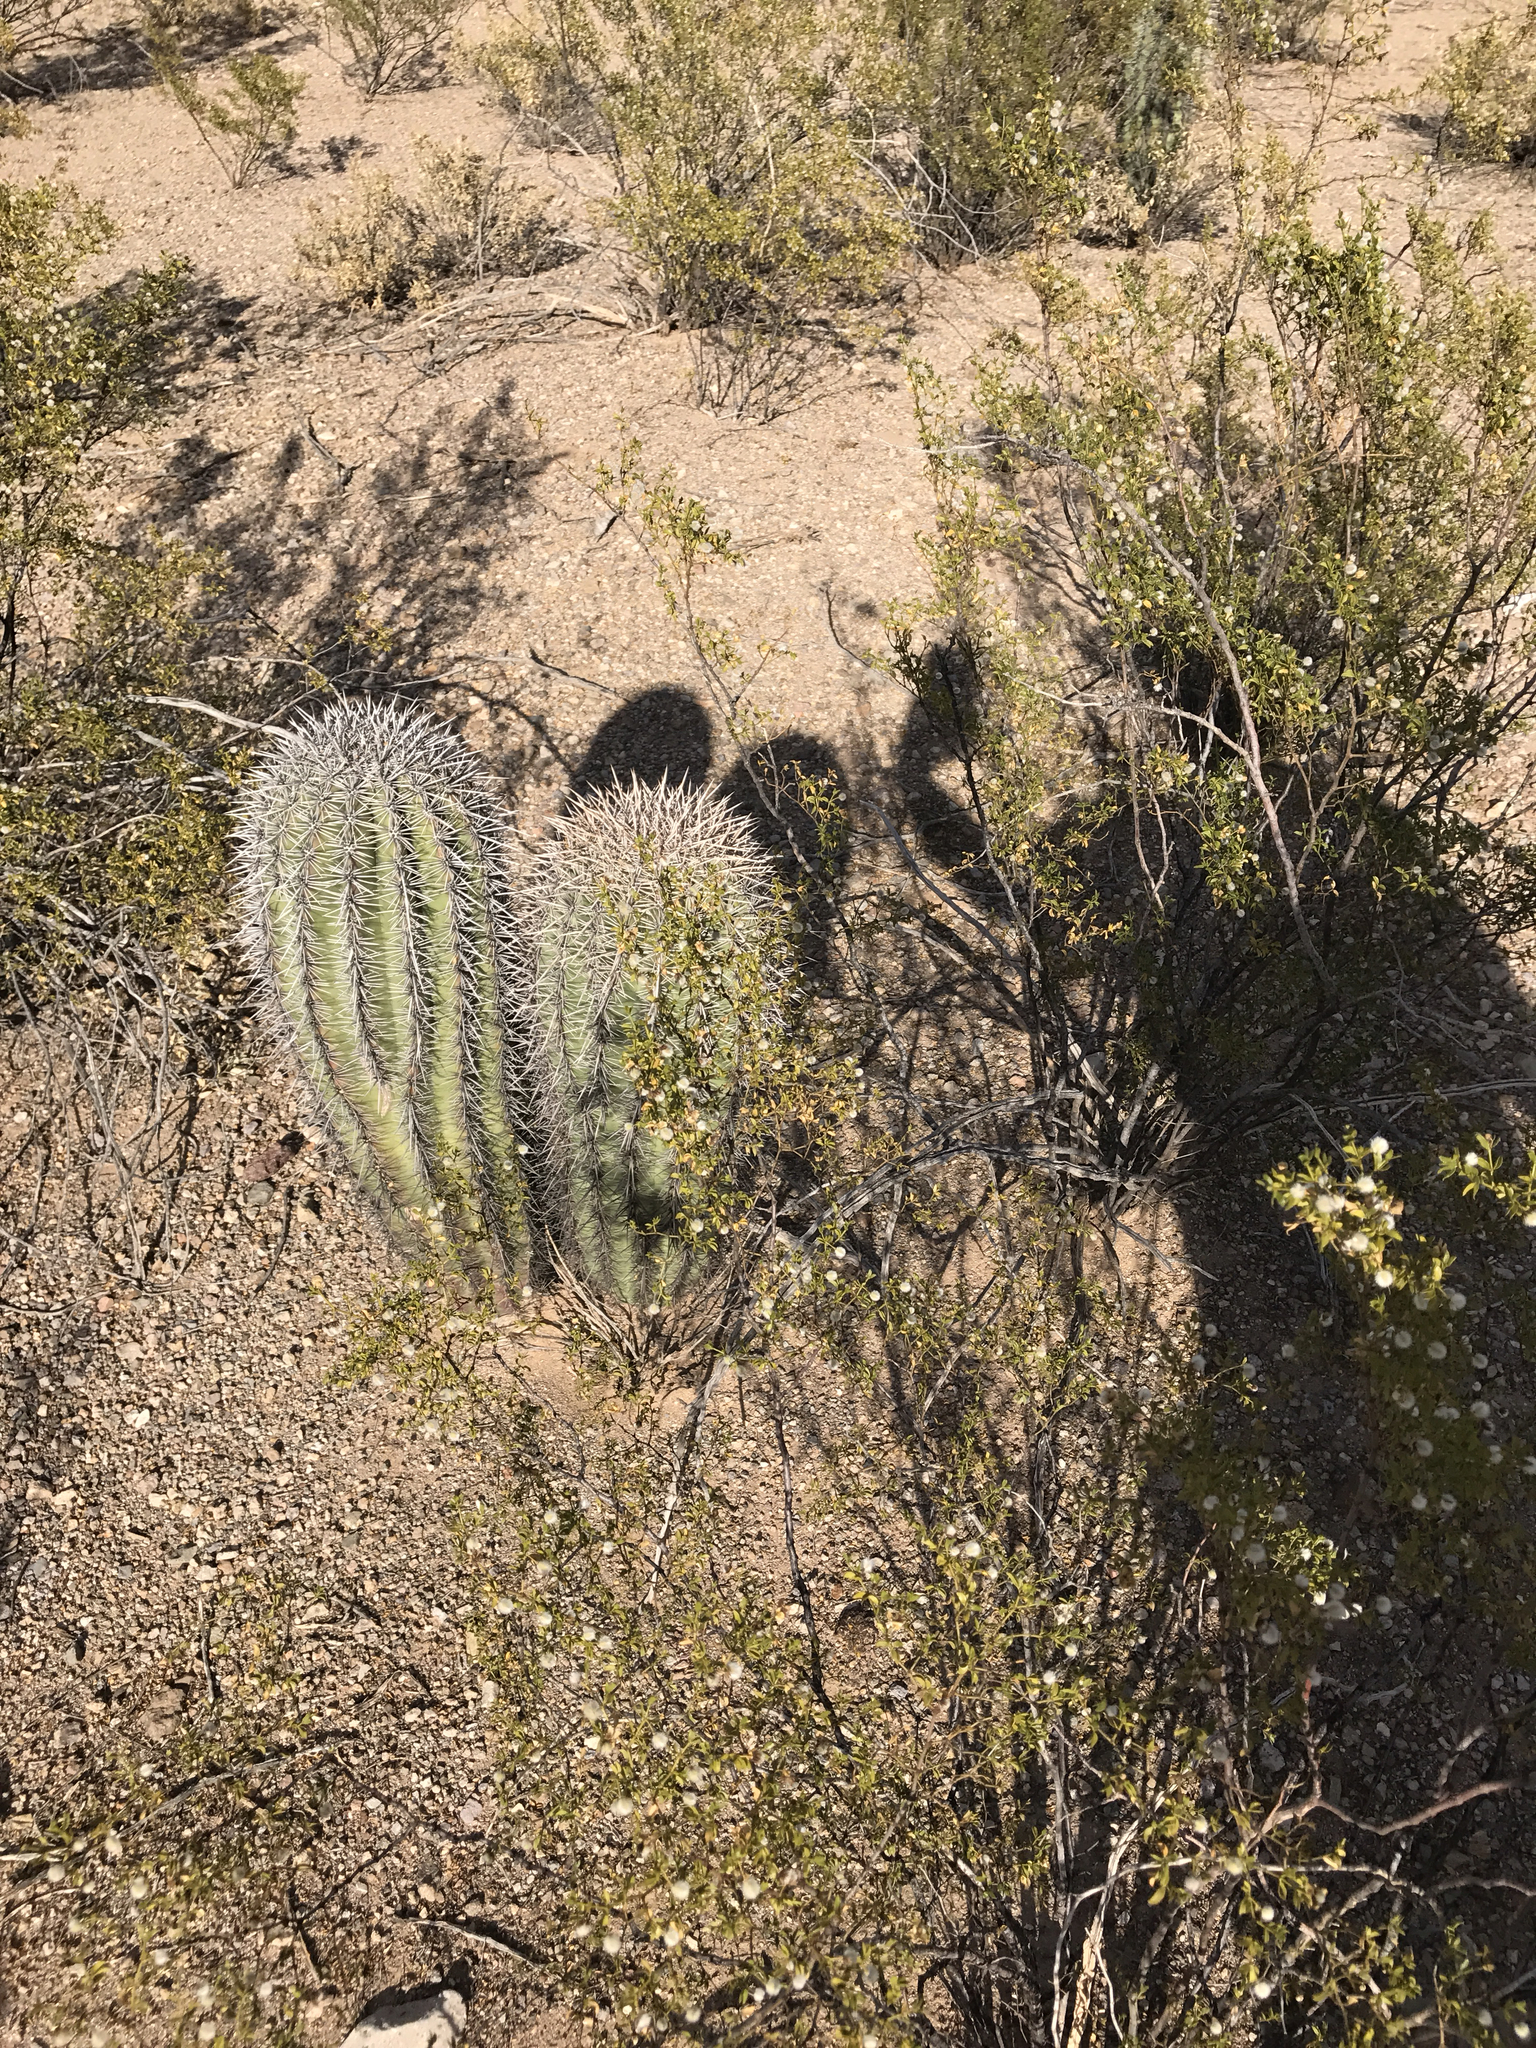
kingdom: Plantae
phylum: Tracheophyta
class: Magnoliopsida
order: Caryophyllales
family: Cactaceae
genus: Carnegiea
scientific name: Carnegiea gigantea
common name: Saguaro
